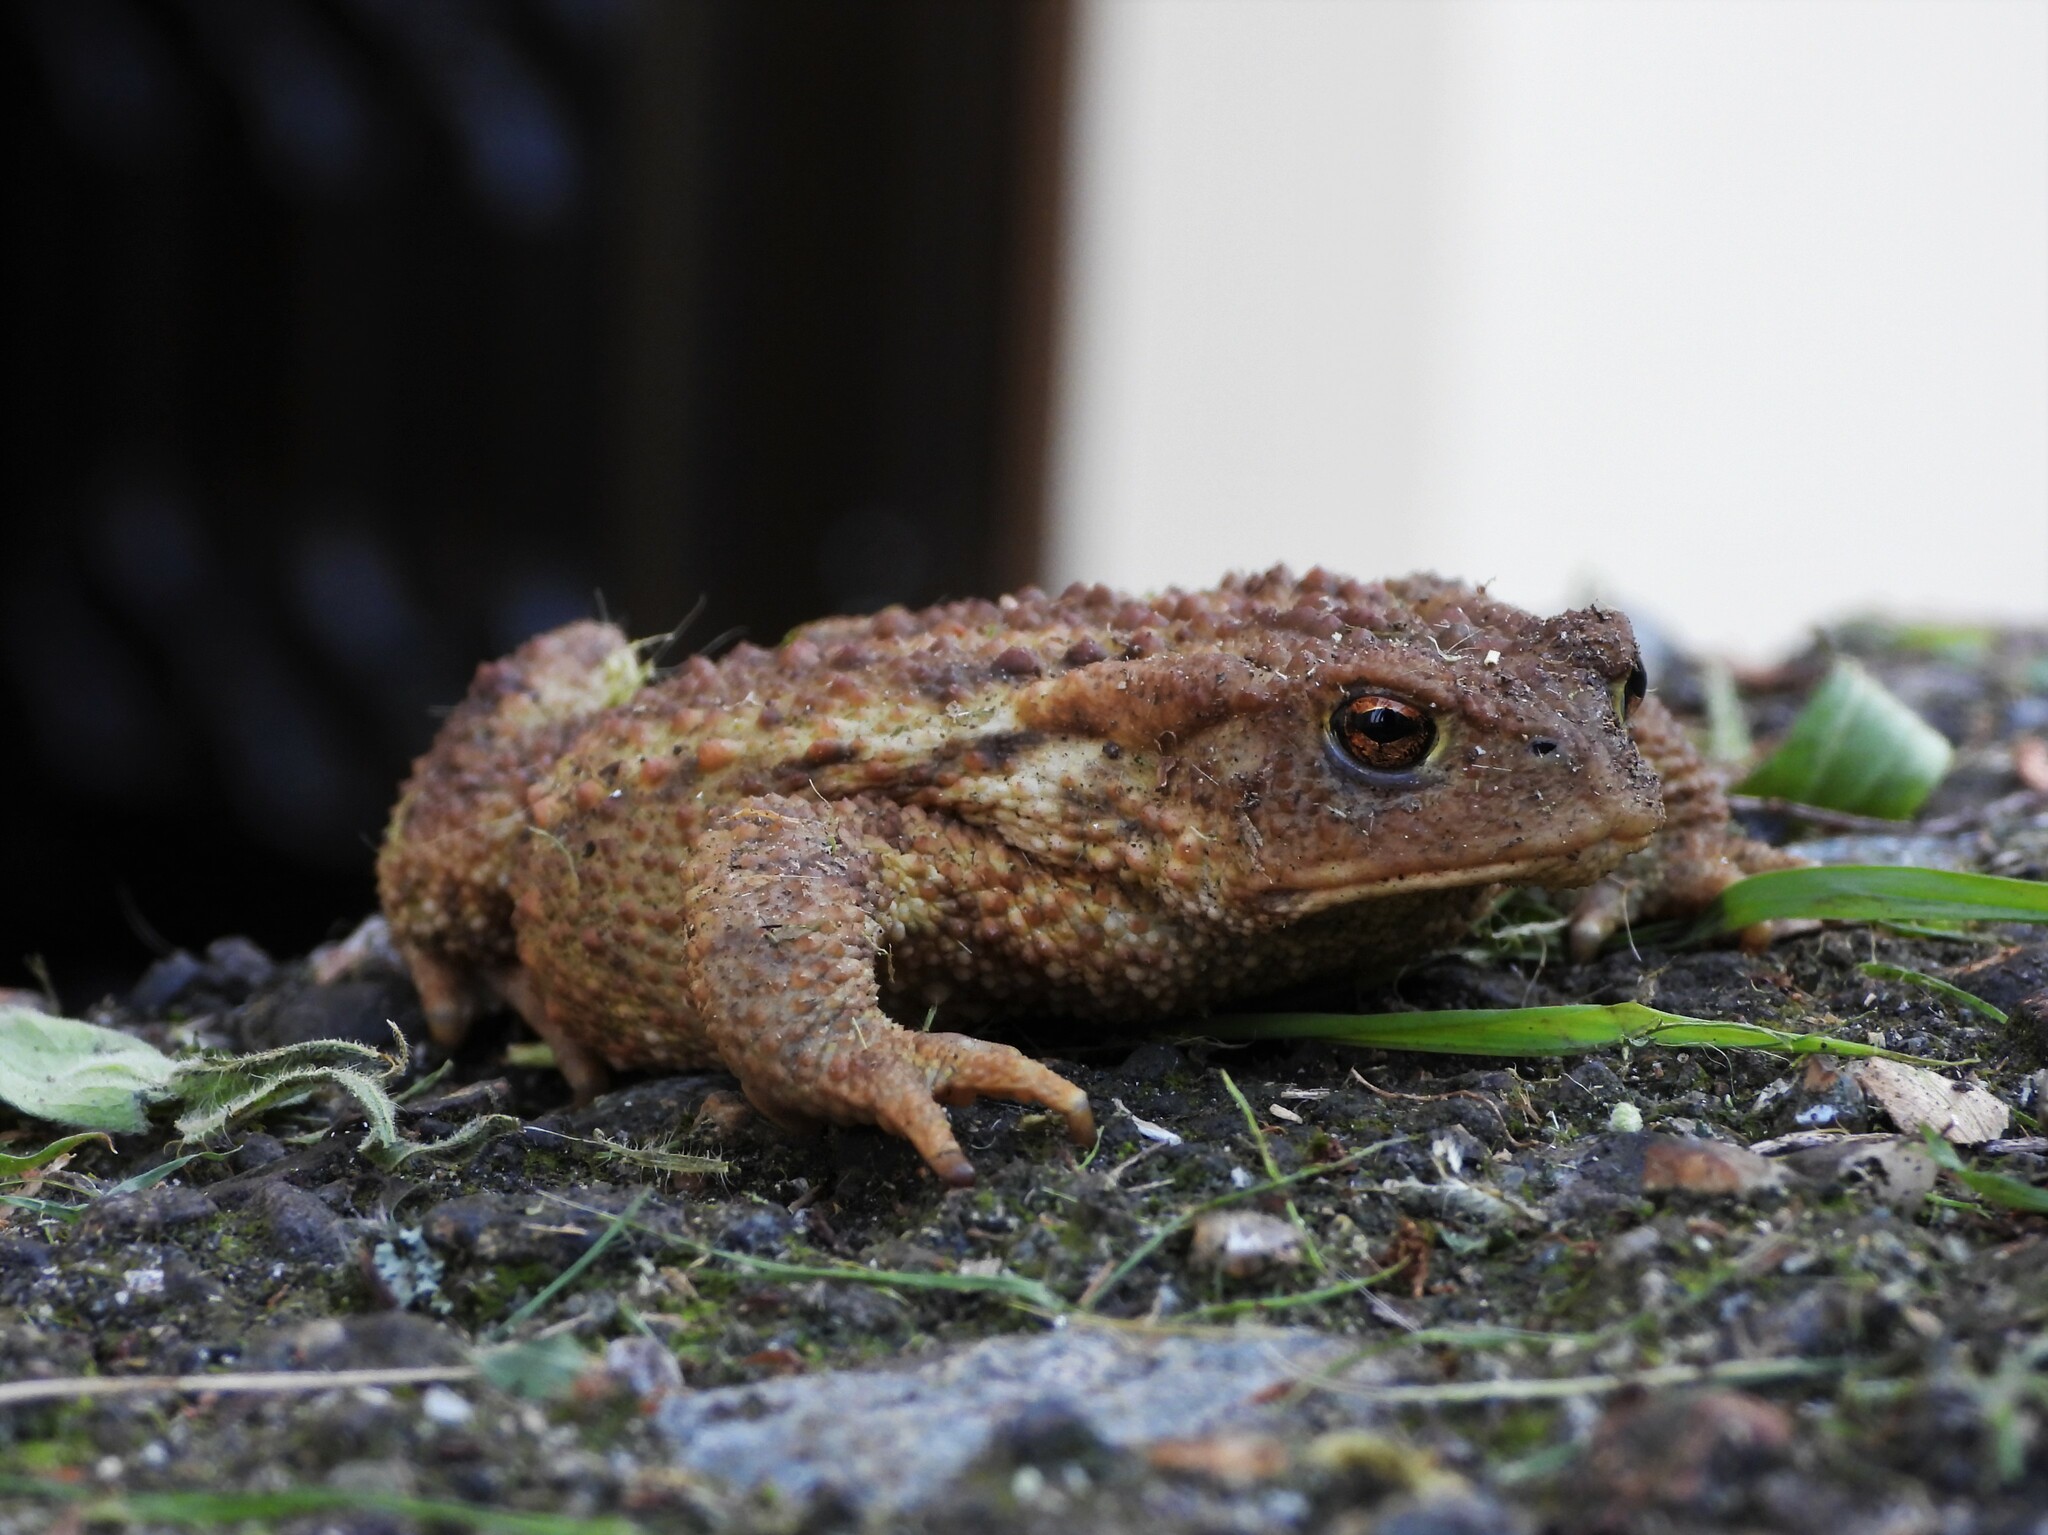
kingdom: Animalia
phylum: Chordata
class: Amphibia
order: Anura
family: Bufonidae
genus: Bufo
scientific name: Bufo bufo
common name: Common toad
